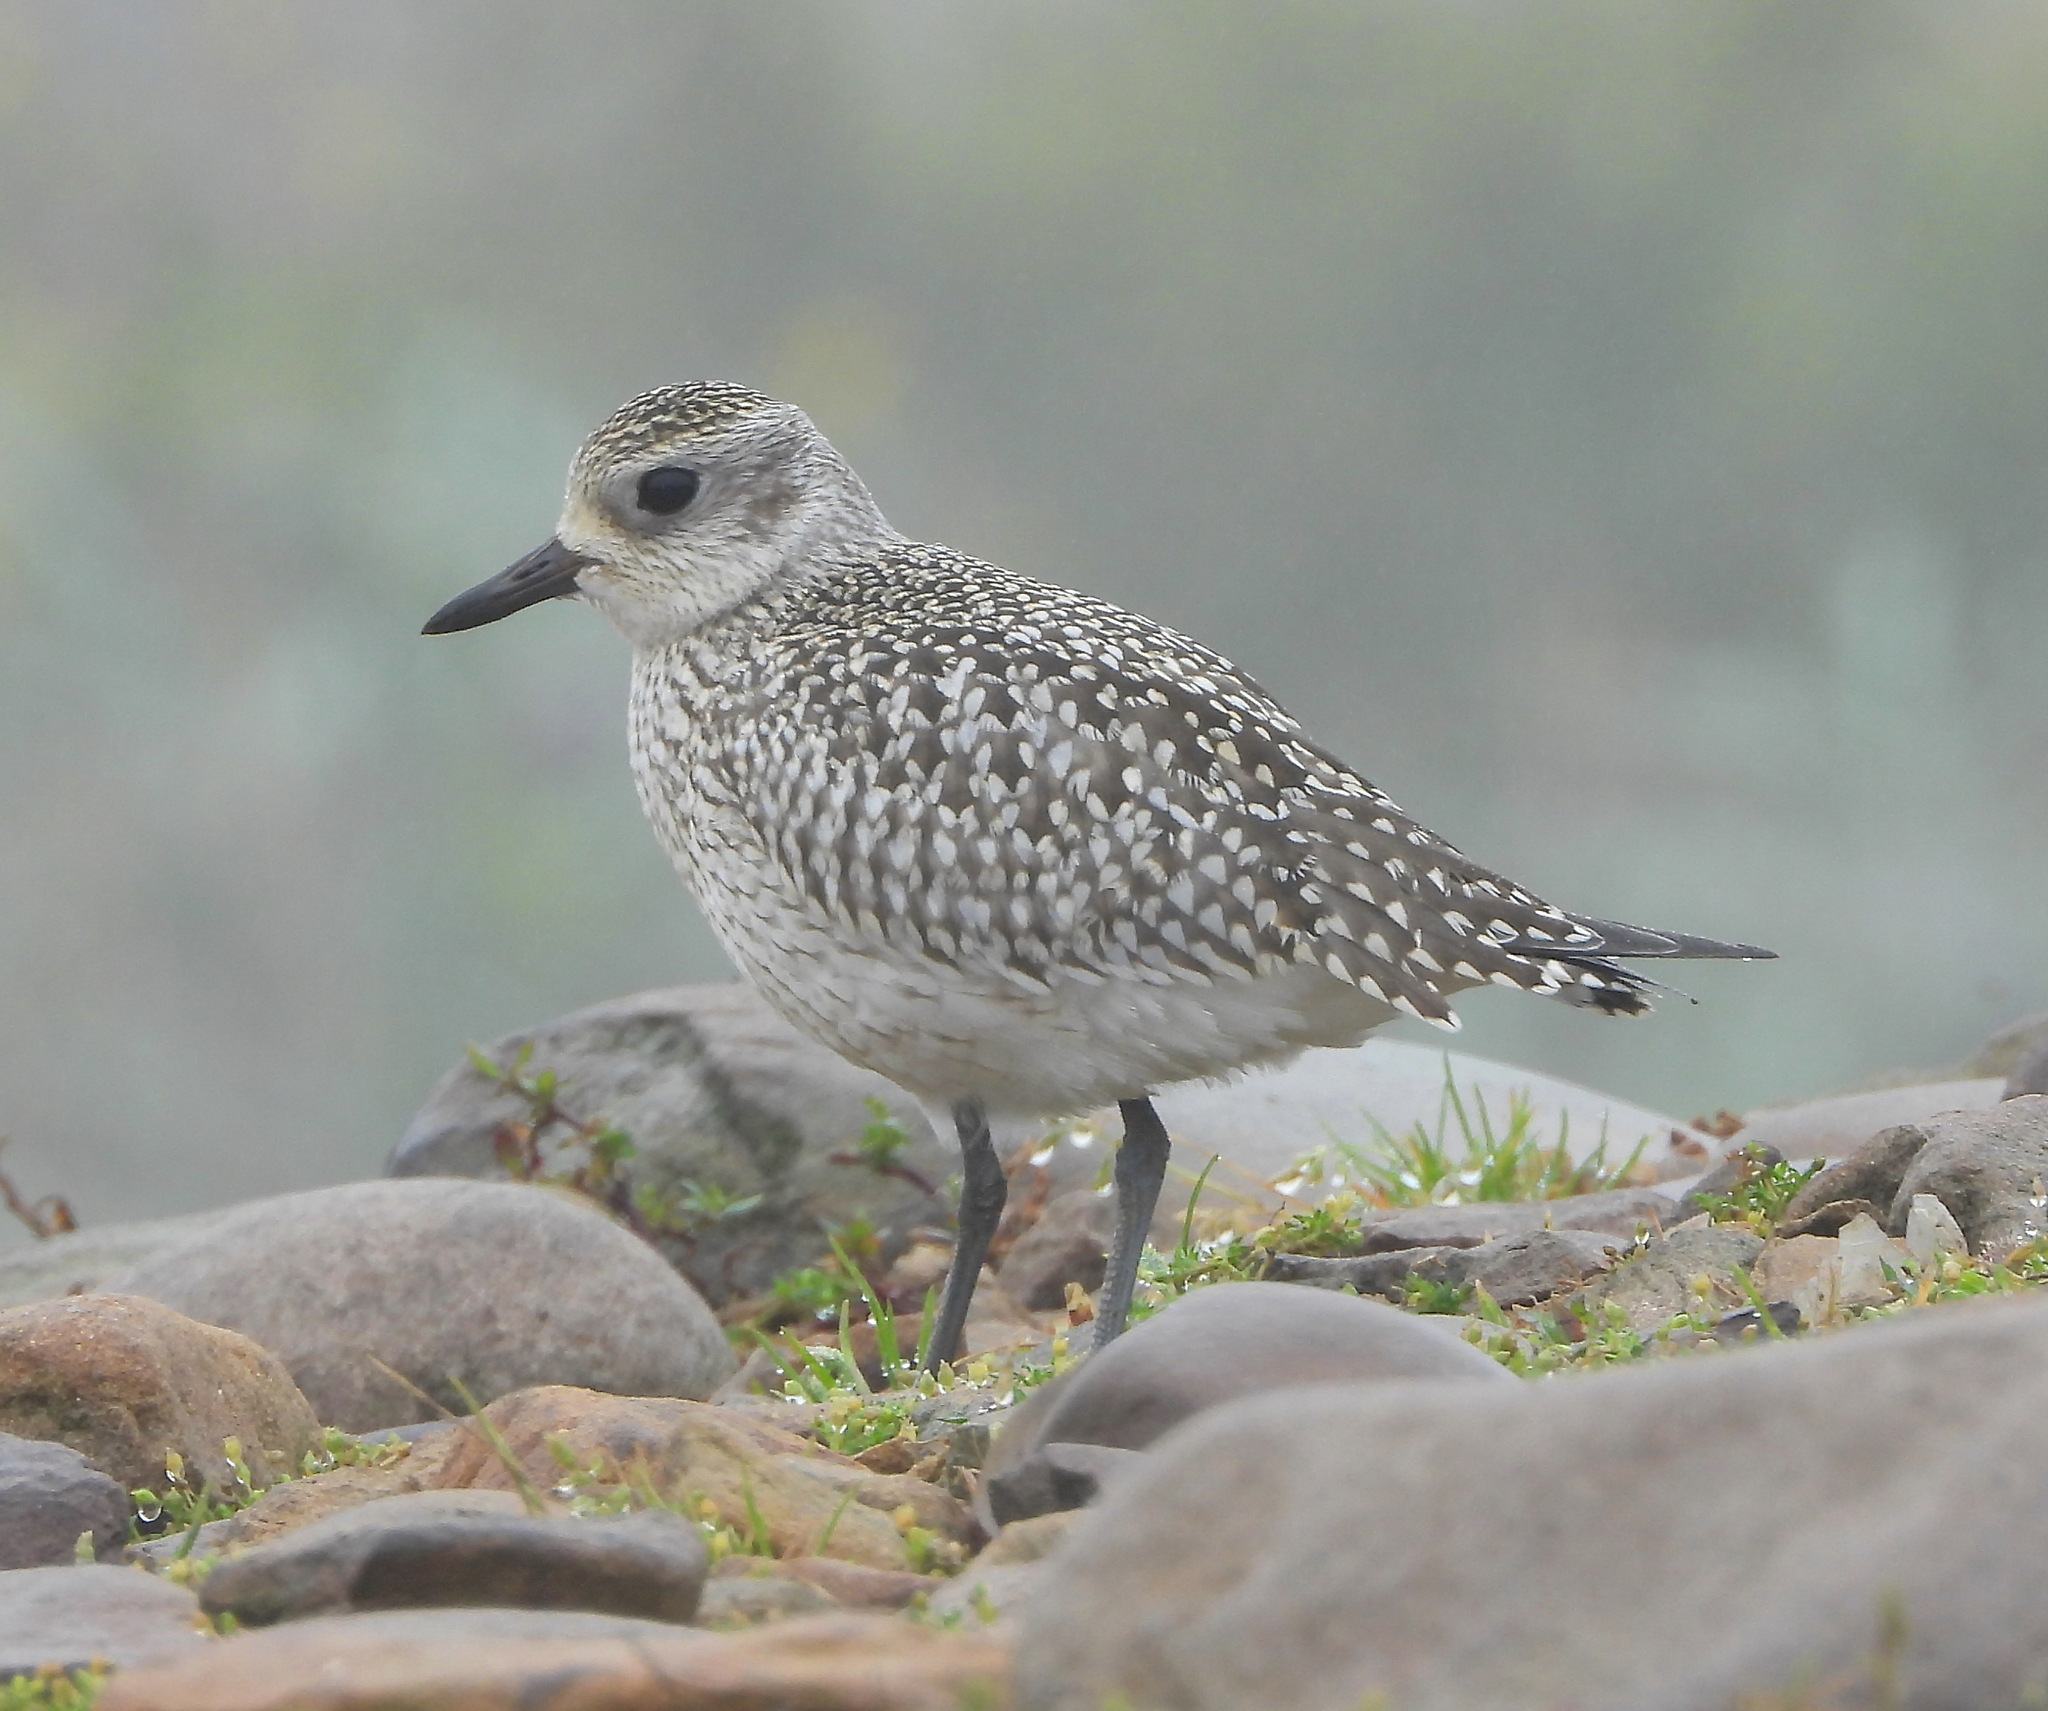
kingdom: Animalia
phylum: Chordata
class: Aves
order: Charadriiformes
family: Charadriidae
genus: Pluvialis
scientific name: Pluvialis squatarola
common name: Grey plover
